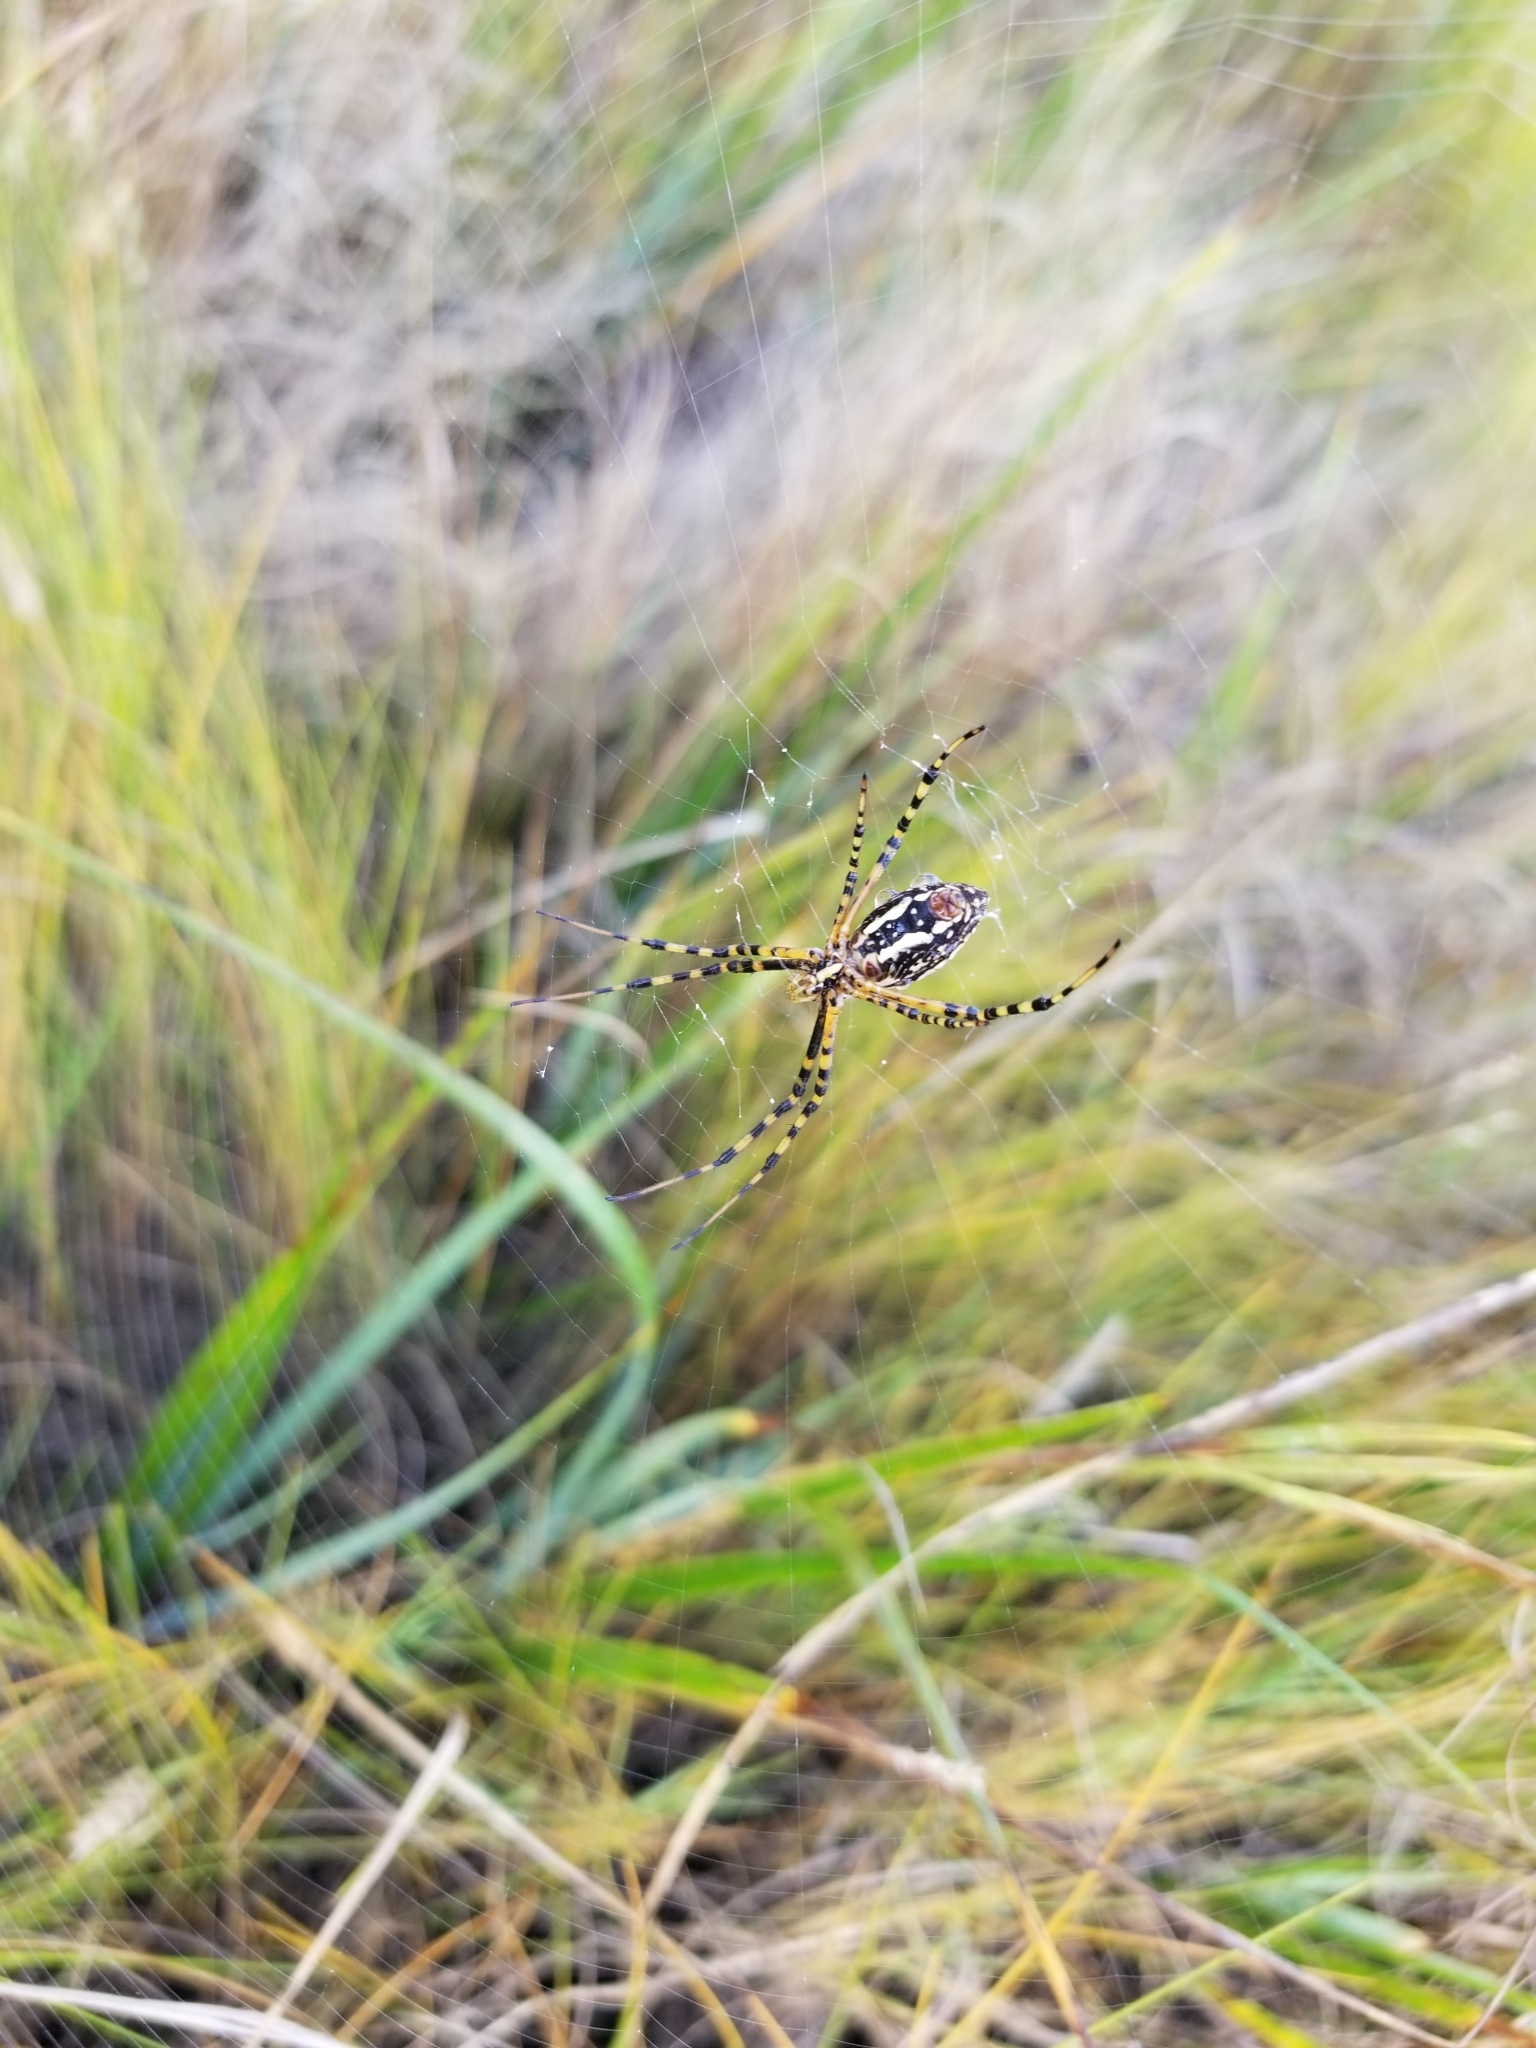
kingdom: Animalia
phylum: Arthropoda
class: Arachnida
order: Araneae
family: Araneidae
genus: Argiope
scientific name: Argiope trifasciata
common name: Banded garden spider
